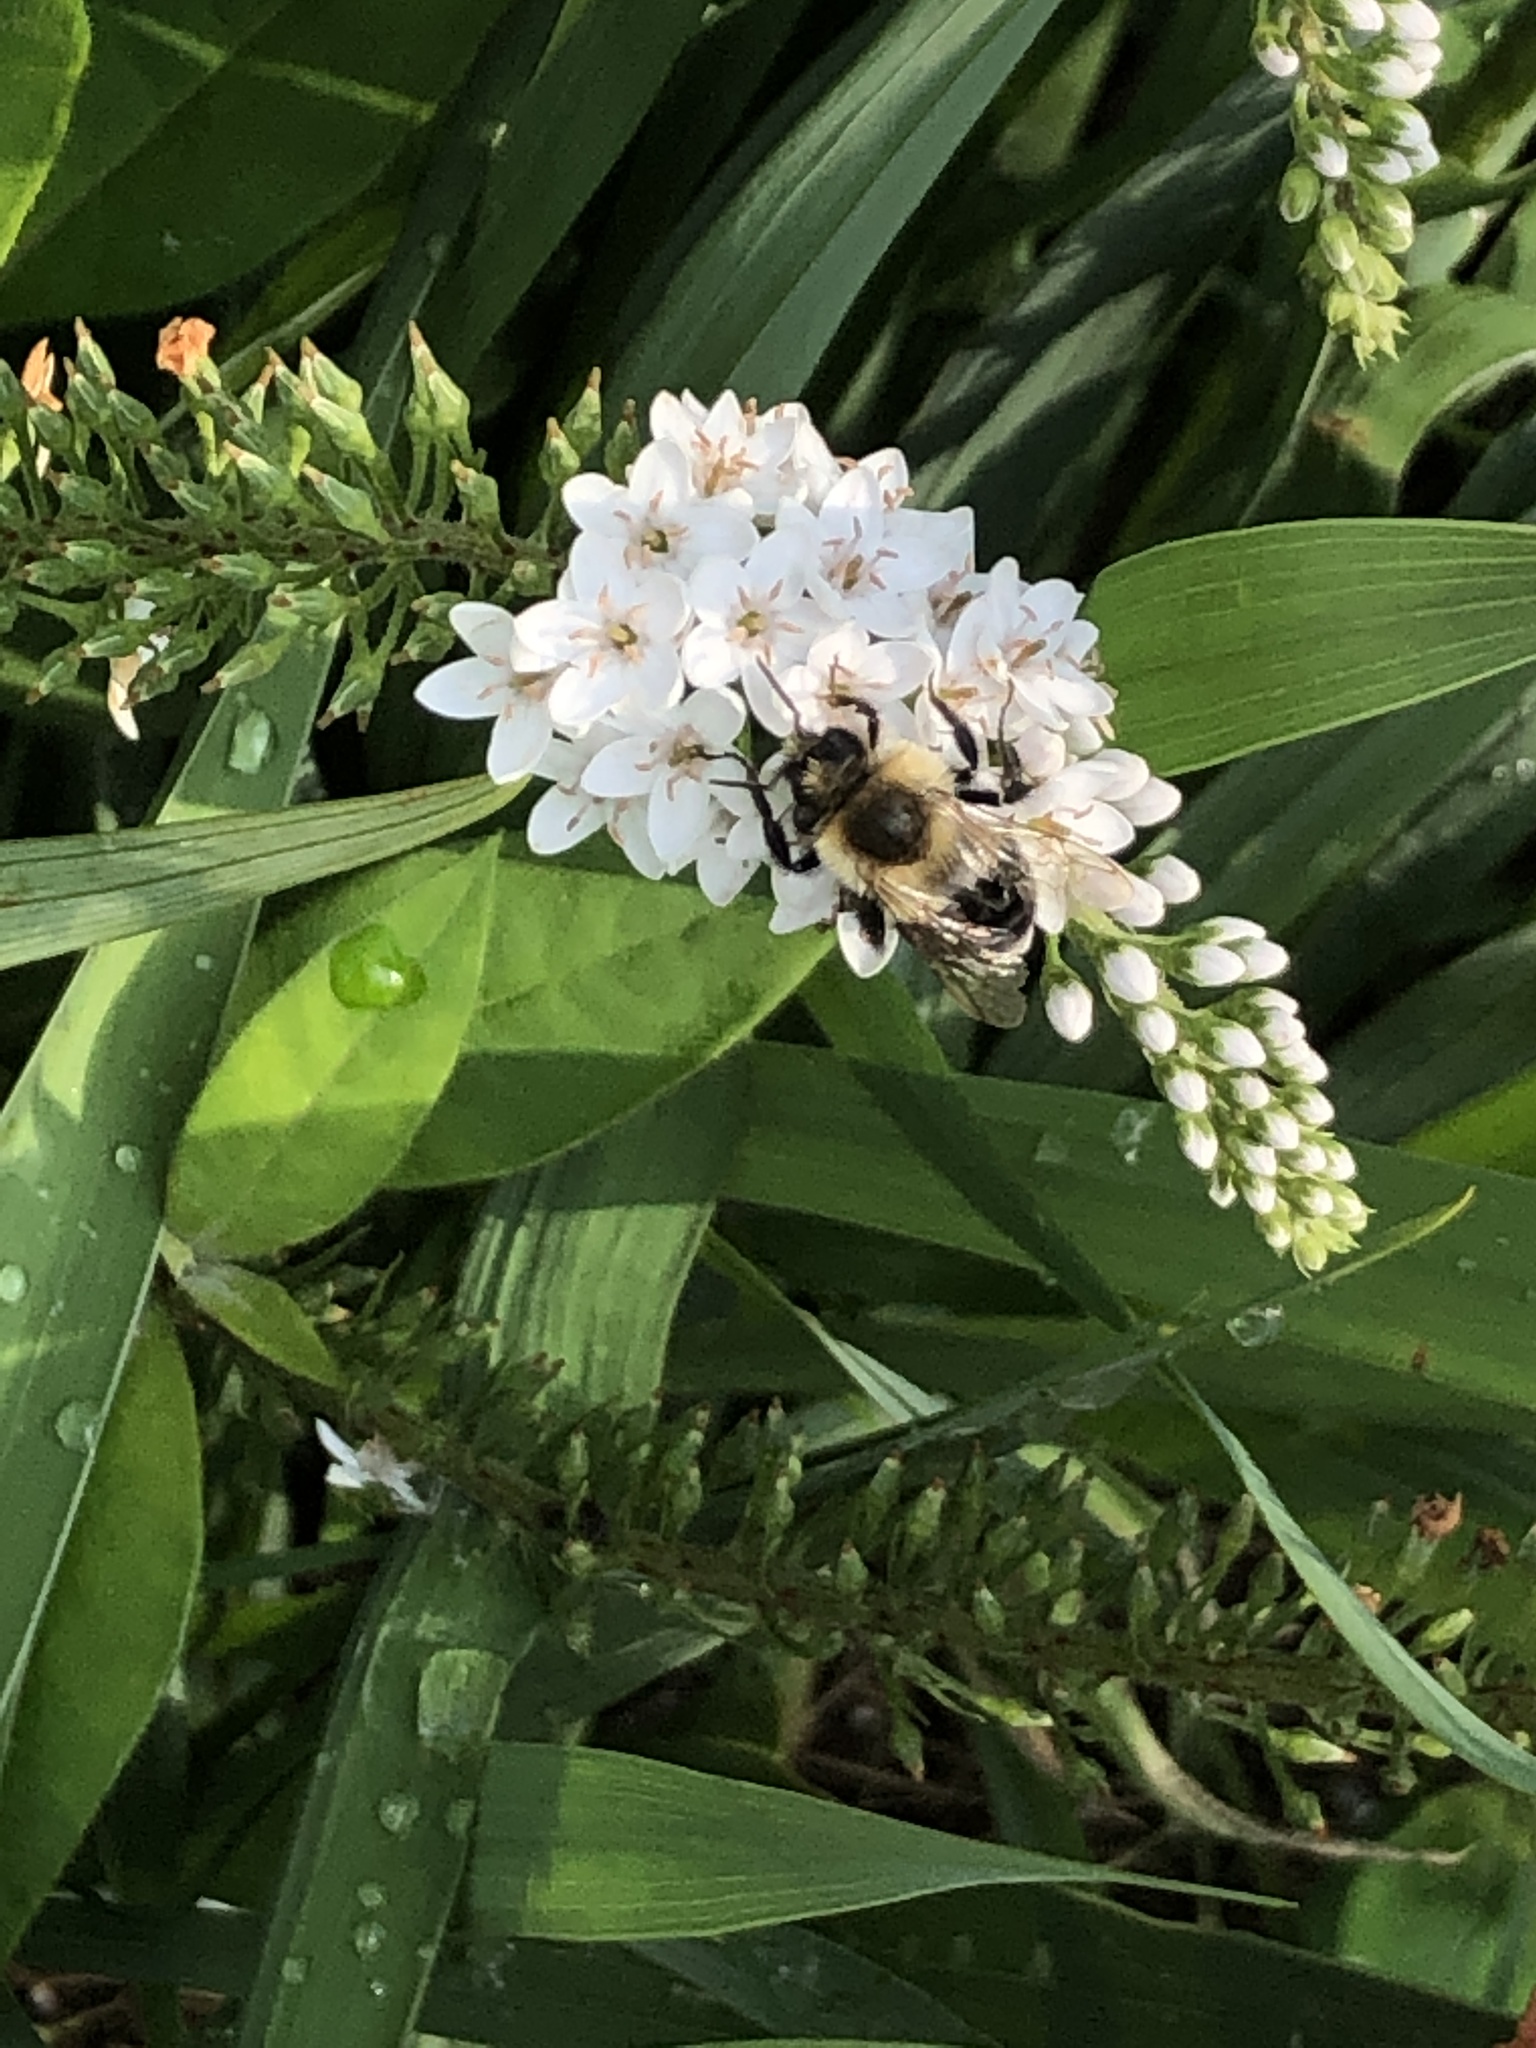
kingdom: Animalia
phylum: Arthropoda
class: Insecta
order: Hymenoptera
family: Apidae
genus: Bombus
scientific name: Bombus impatiens
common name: Common eastern bumble bee
